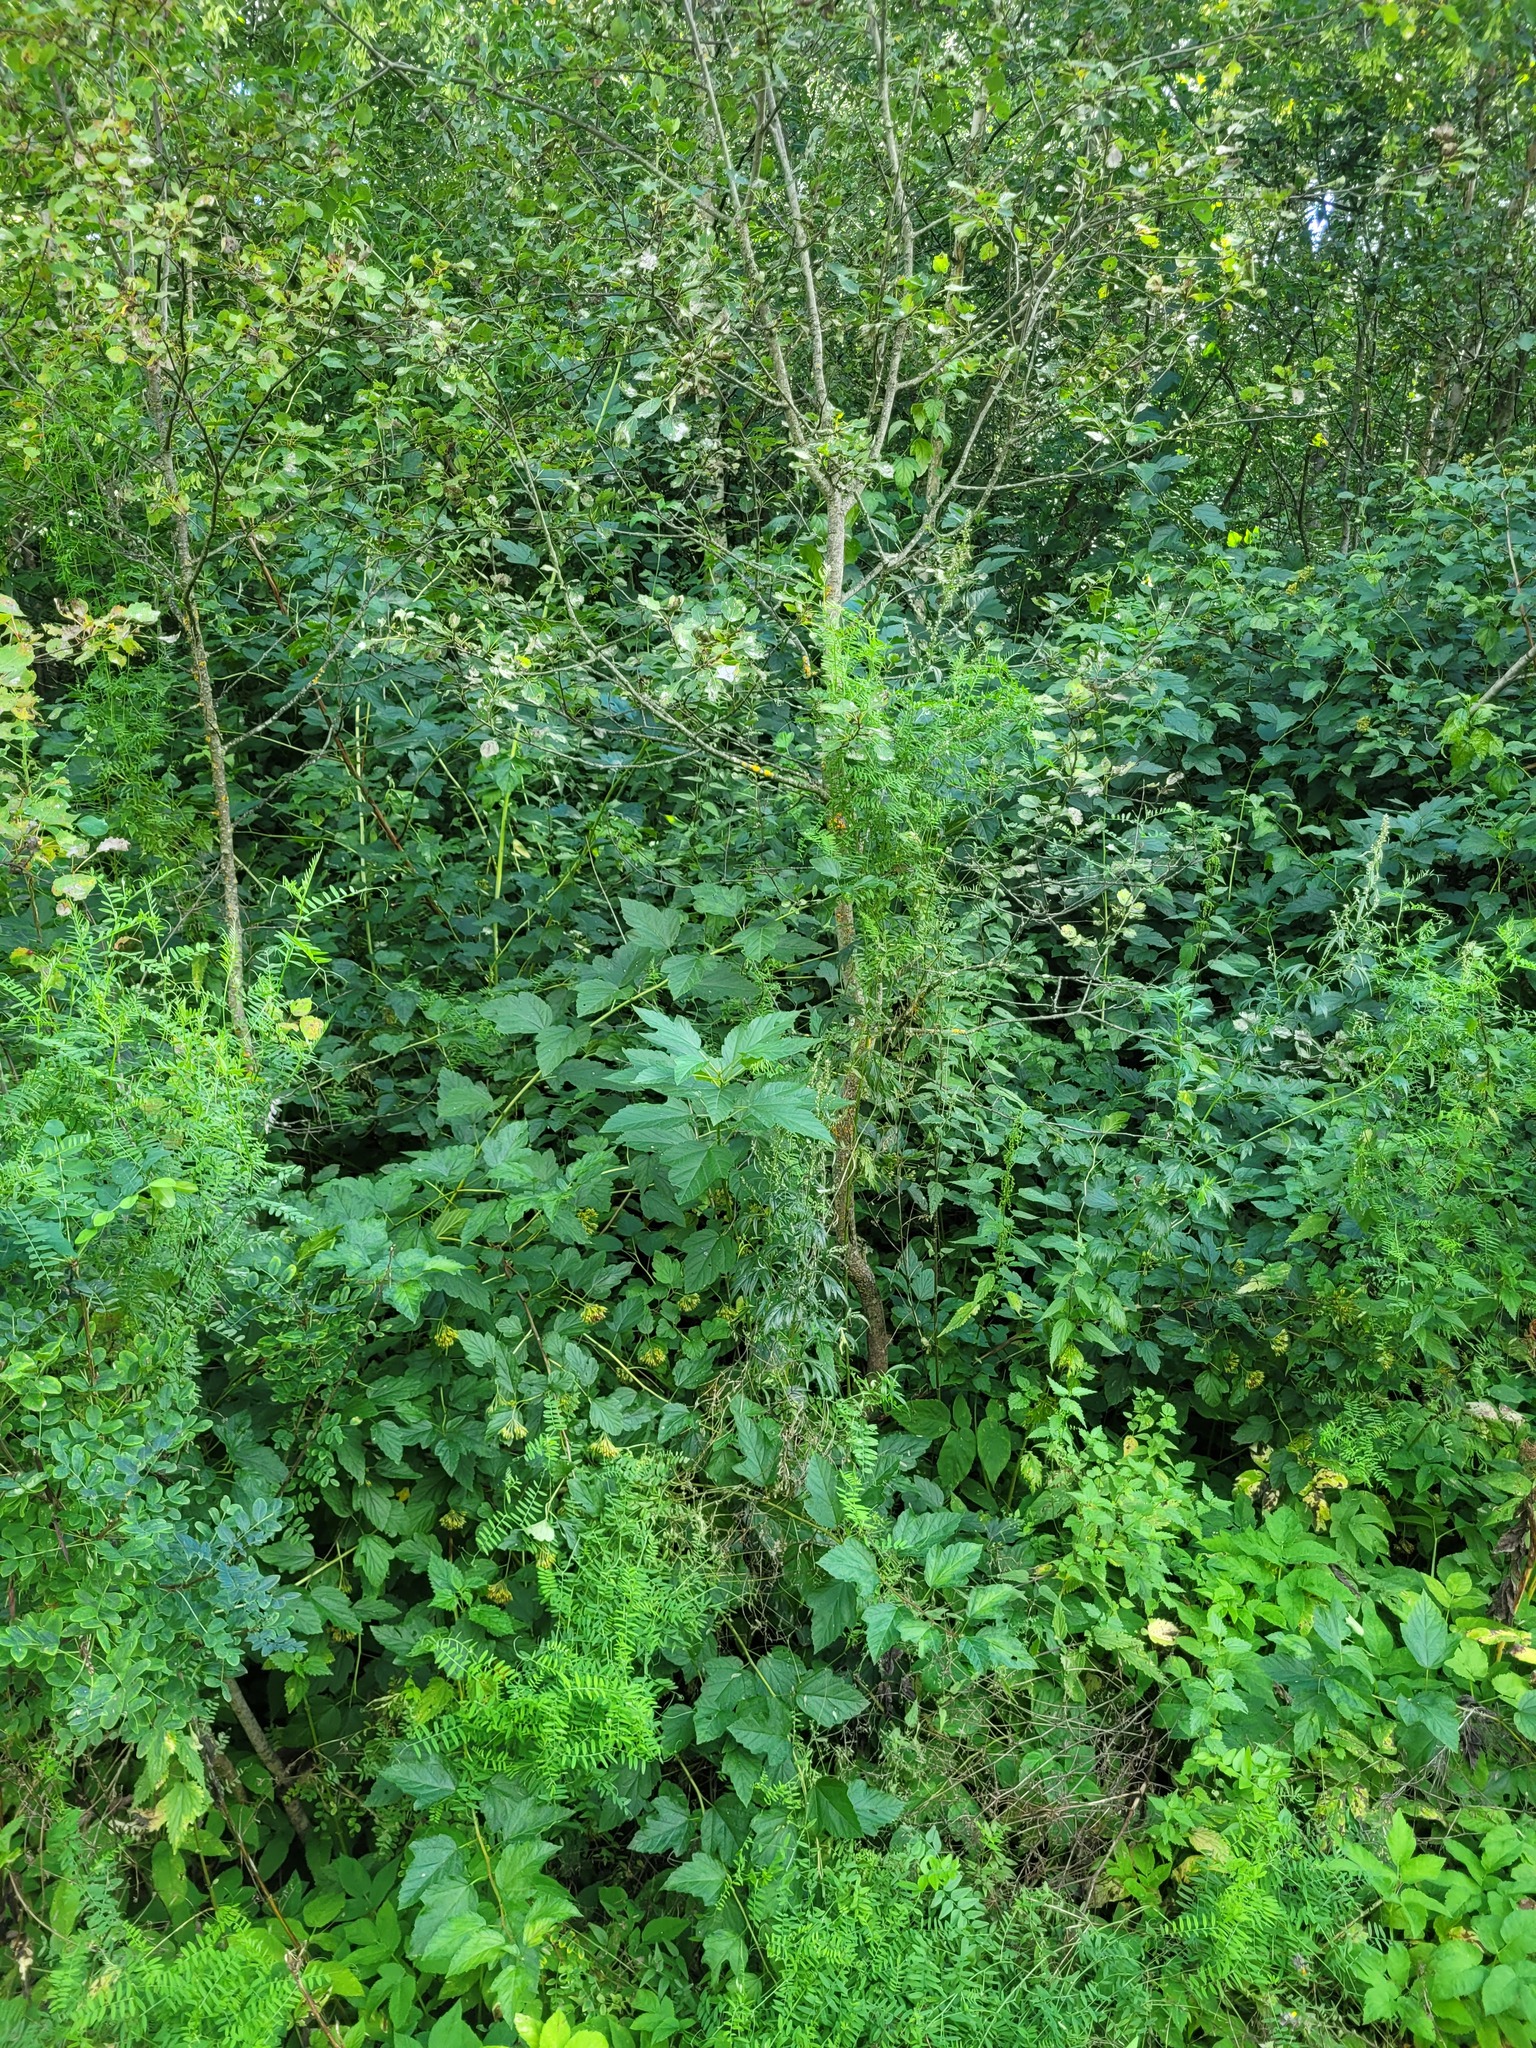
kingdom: Plantae
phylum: Tracheophyta
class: Magnoliopsida
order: Rosales
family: Rosaceae
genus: Physocarpus
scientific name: Physocarpus opulifolius
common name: Ninebark
